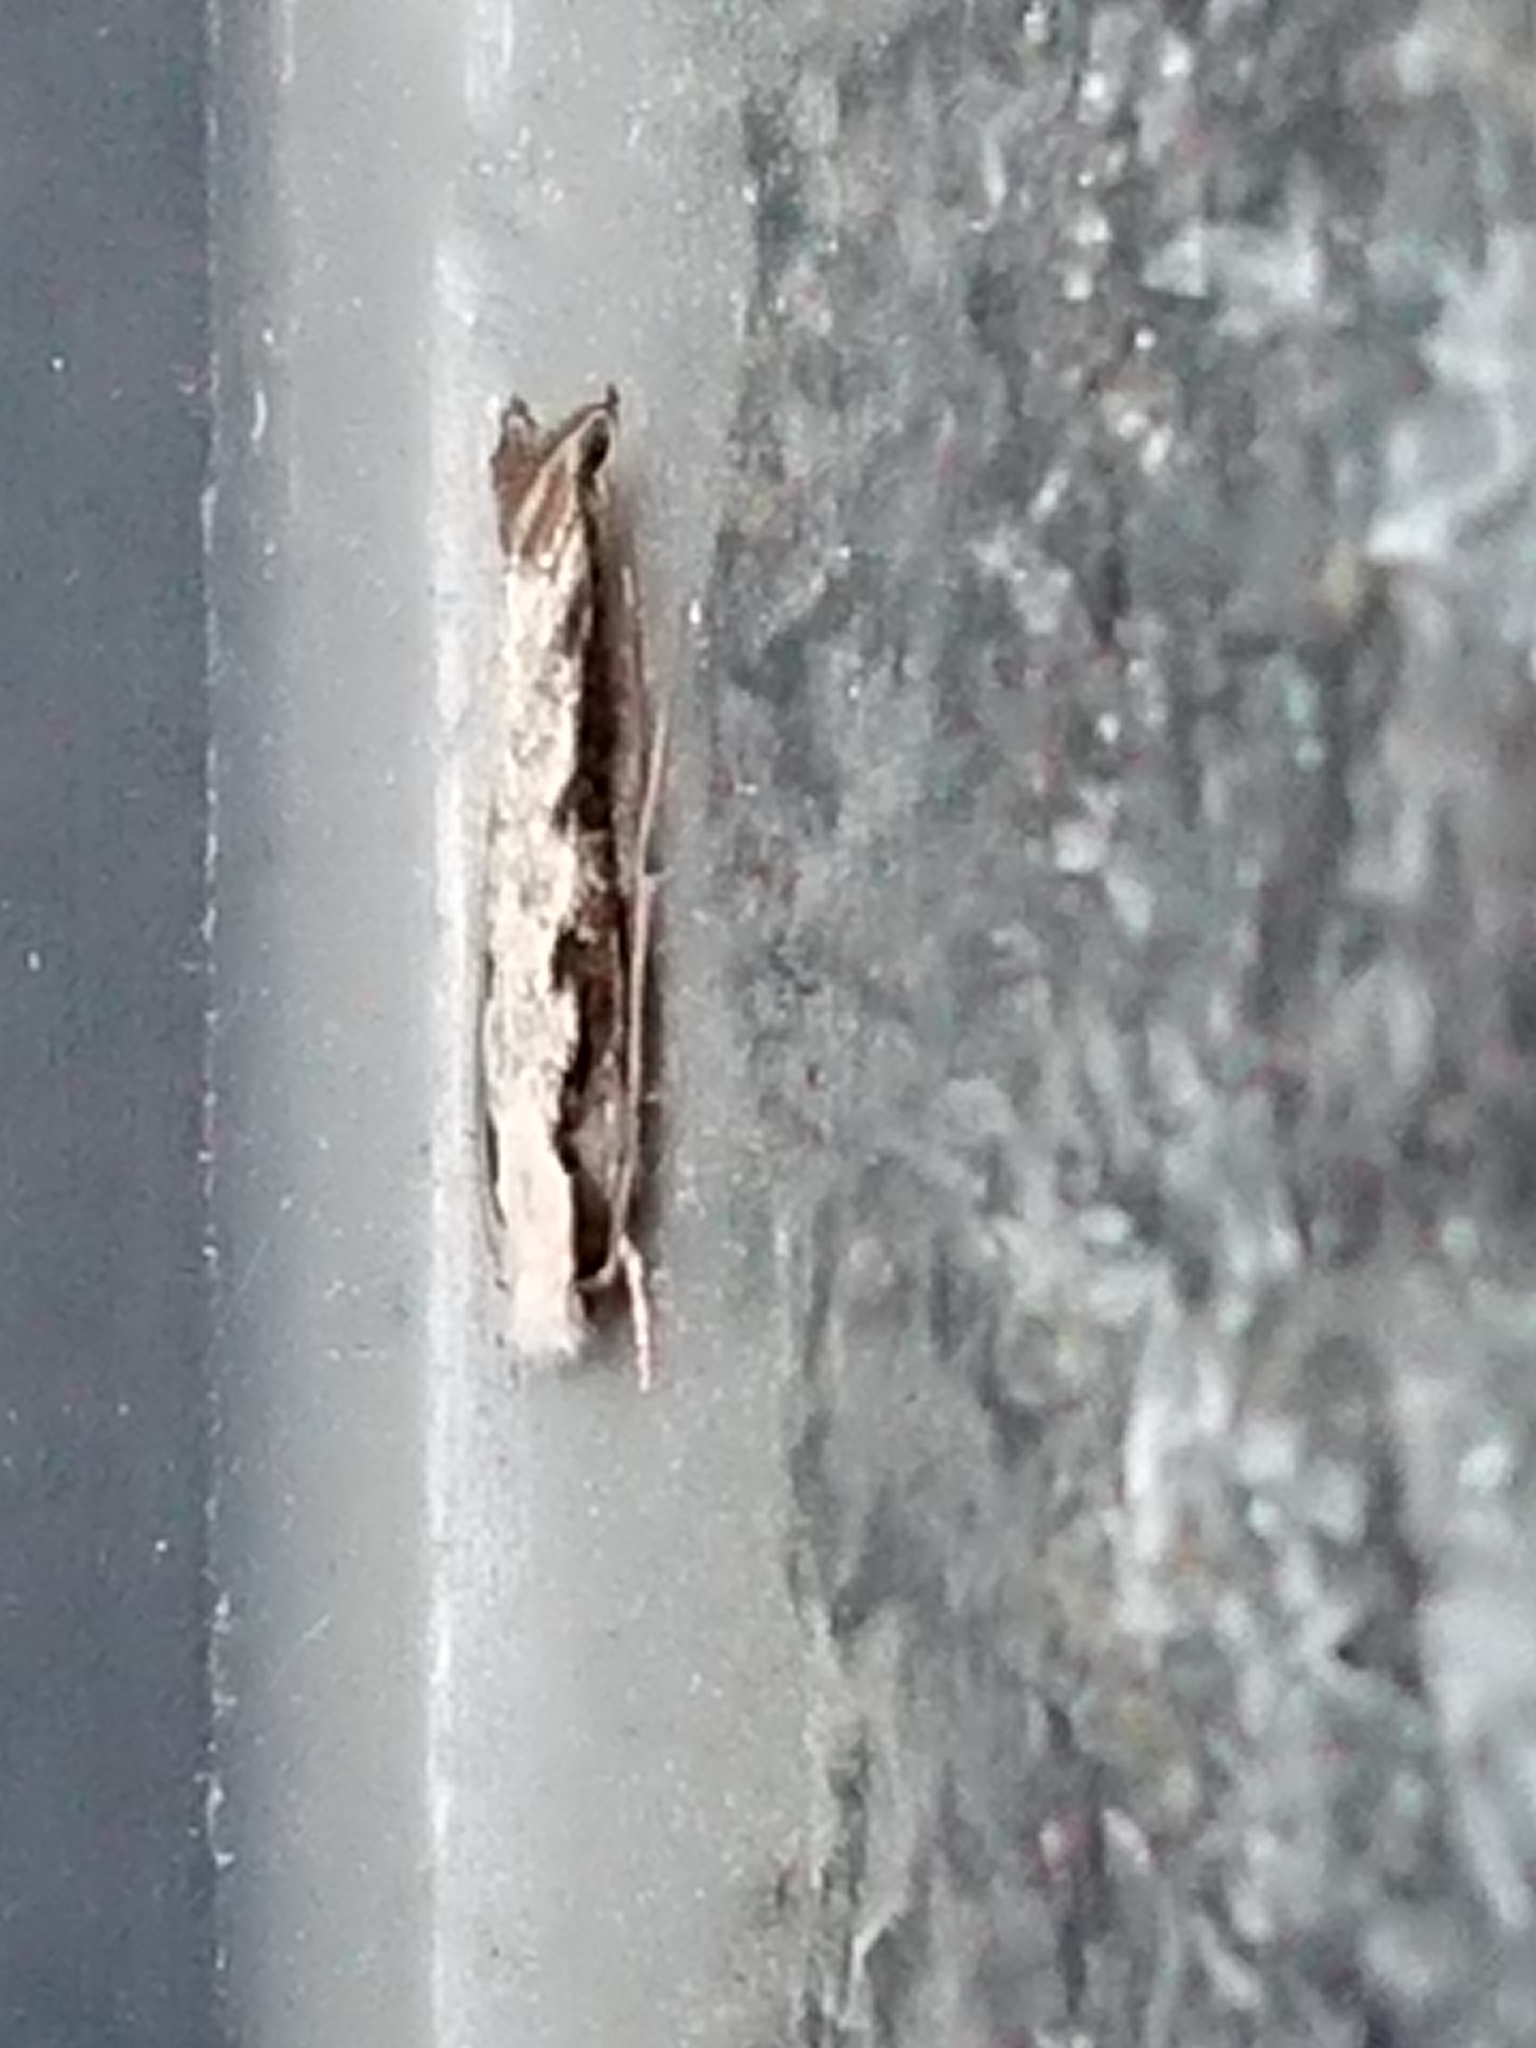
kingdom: Animalia
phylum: Arthropoda
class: Insecta
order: Lepidoptera
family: Tineidae
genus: Erechthias
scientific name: Erechthias fulguritella
